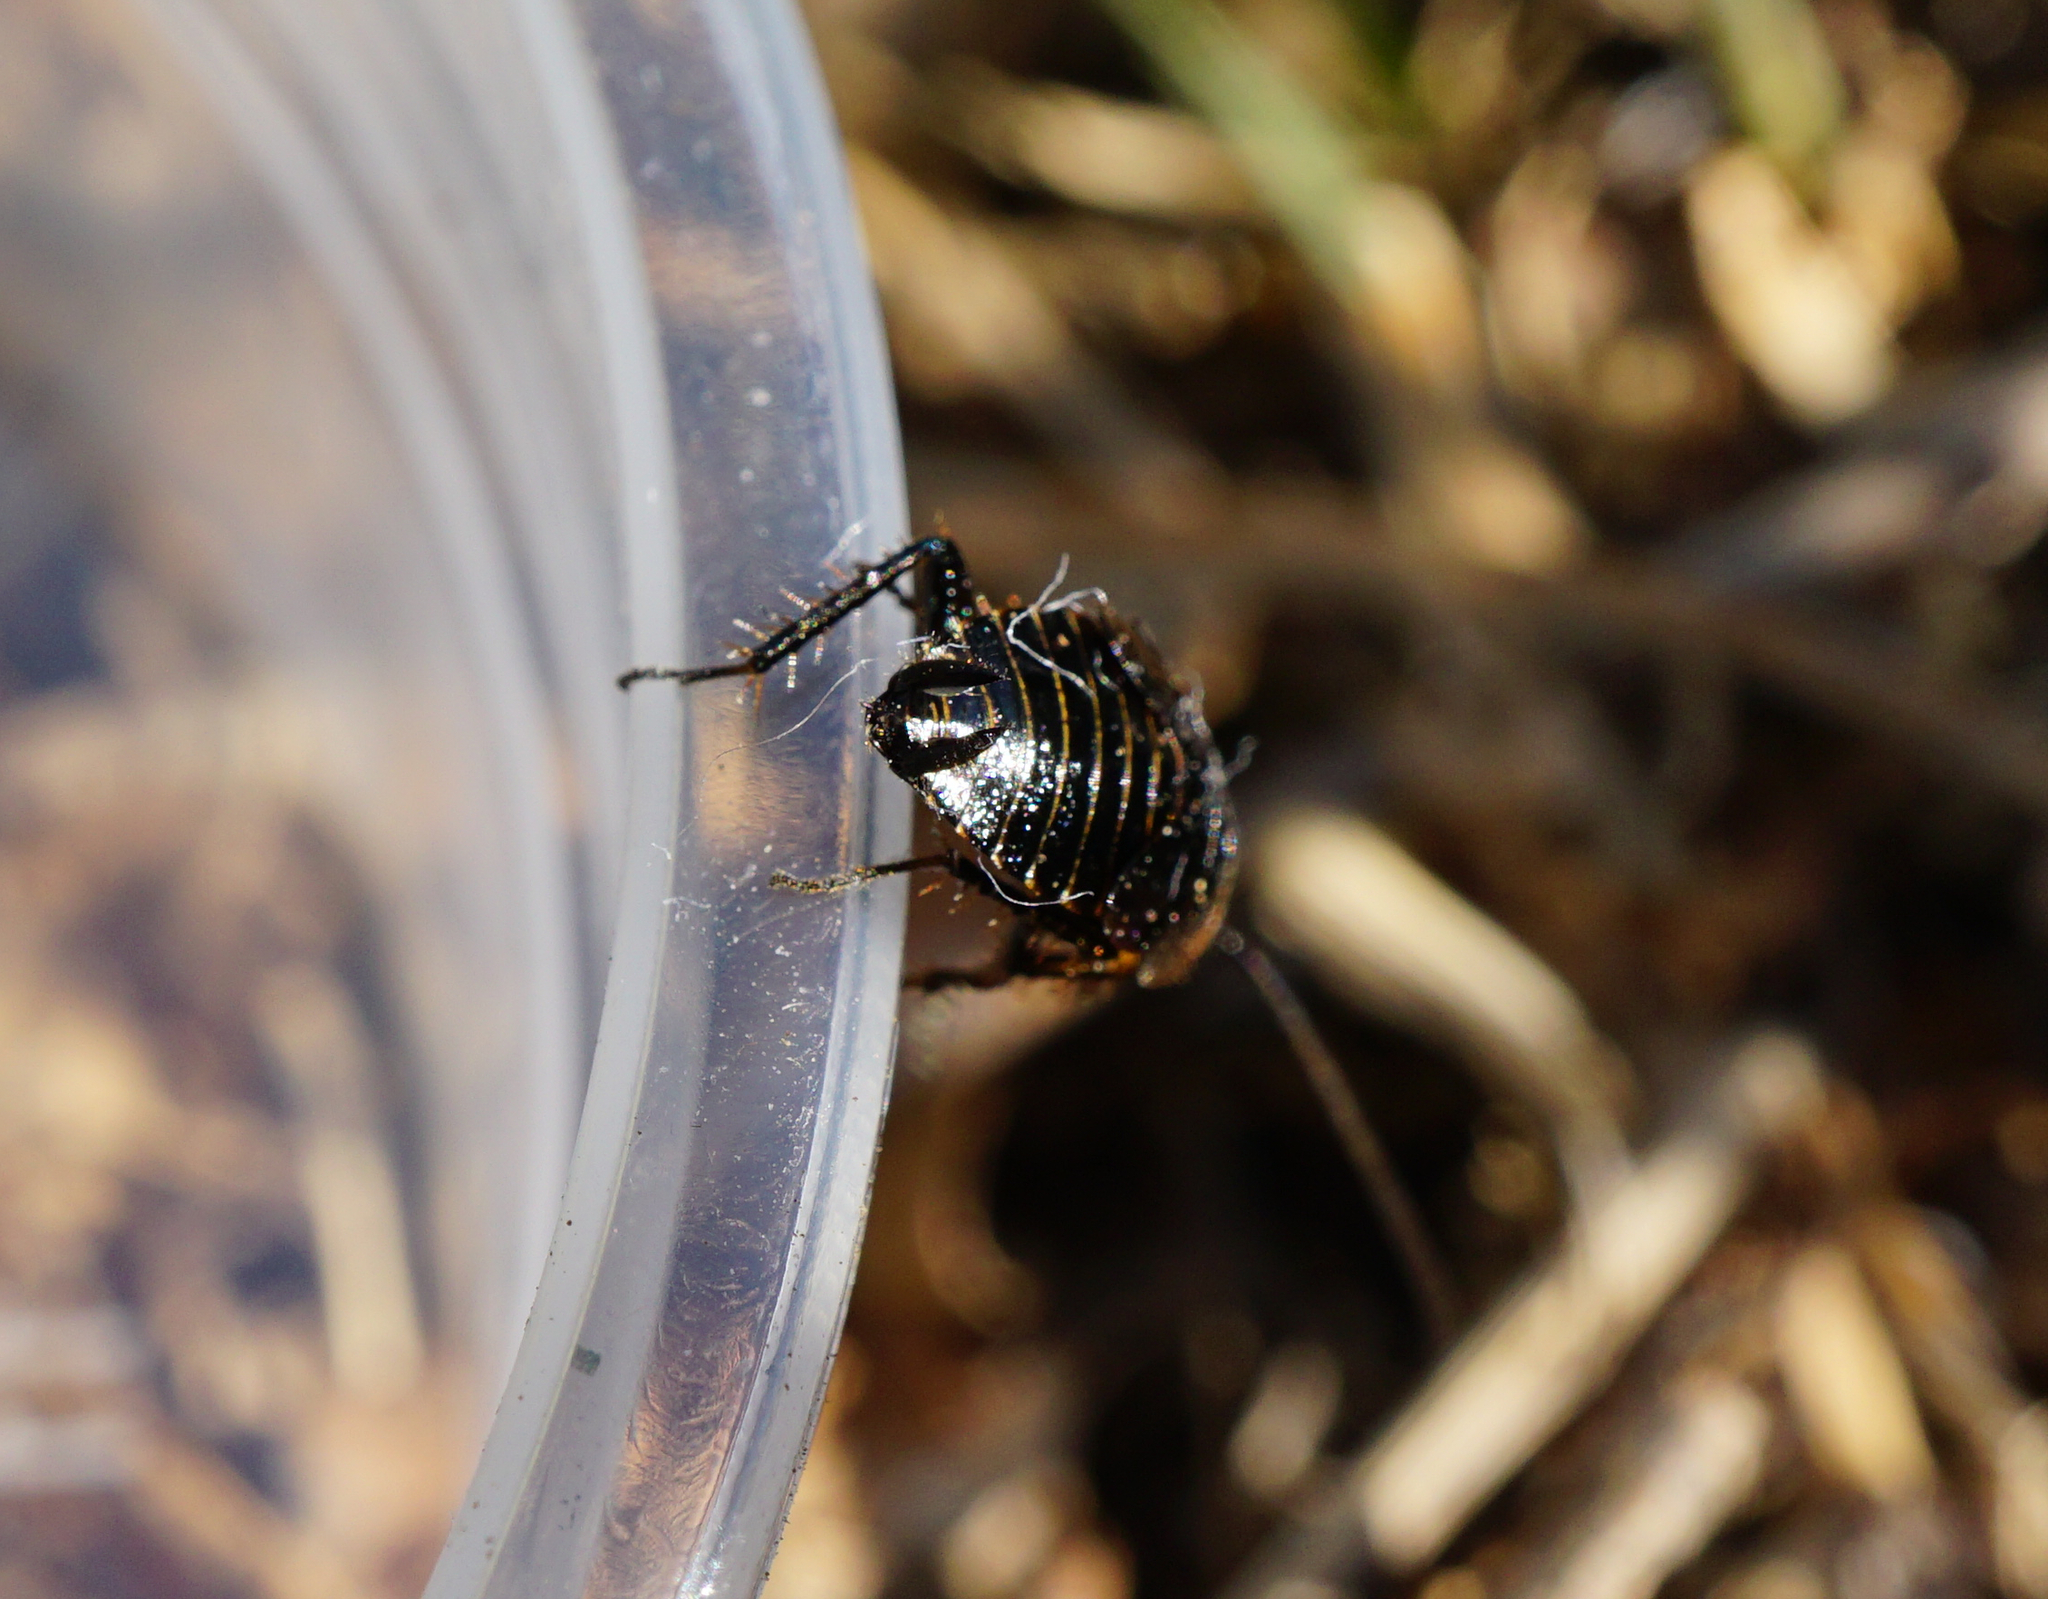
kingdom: Animalia
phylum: Arthropoda
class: Insecta
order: Blattodea
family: Ectobiidae
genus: Ectobius
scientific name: Ectobius sylvestris
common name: Forest cockroach
